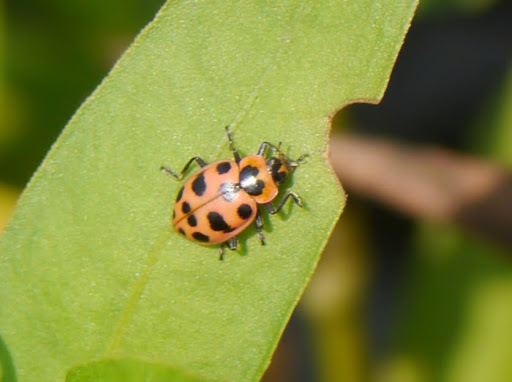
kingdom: Animalia
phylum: Arthropoda
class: Insecta
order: Coleoptera
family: Coccinellidae
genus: Coleomegilla
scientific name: Coleomegilla maculata
